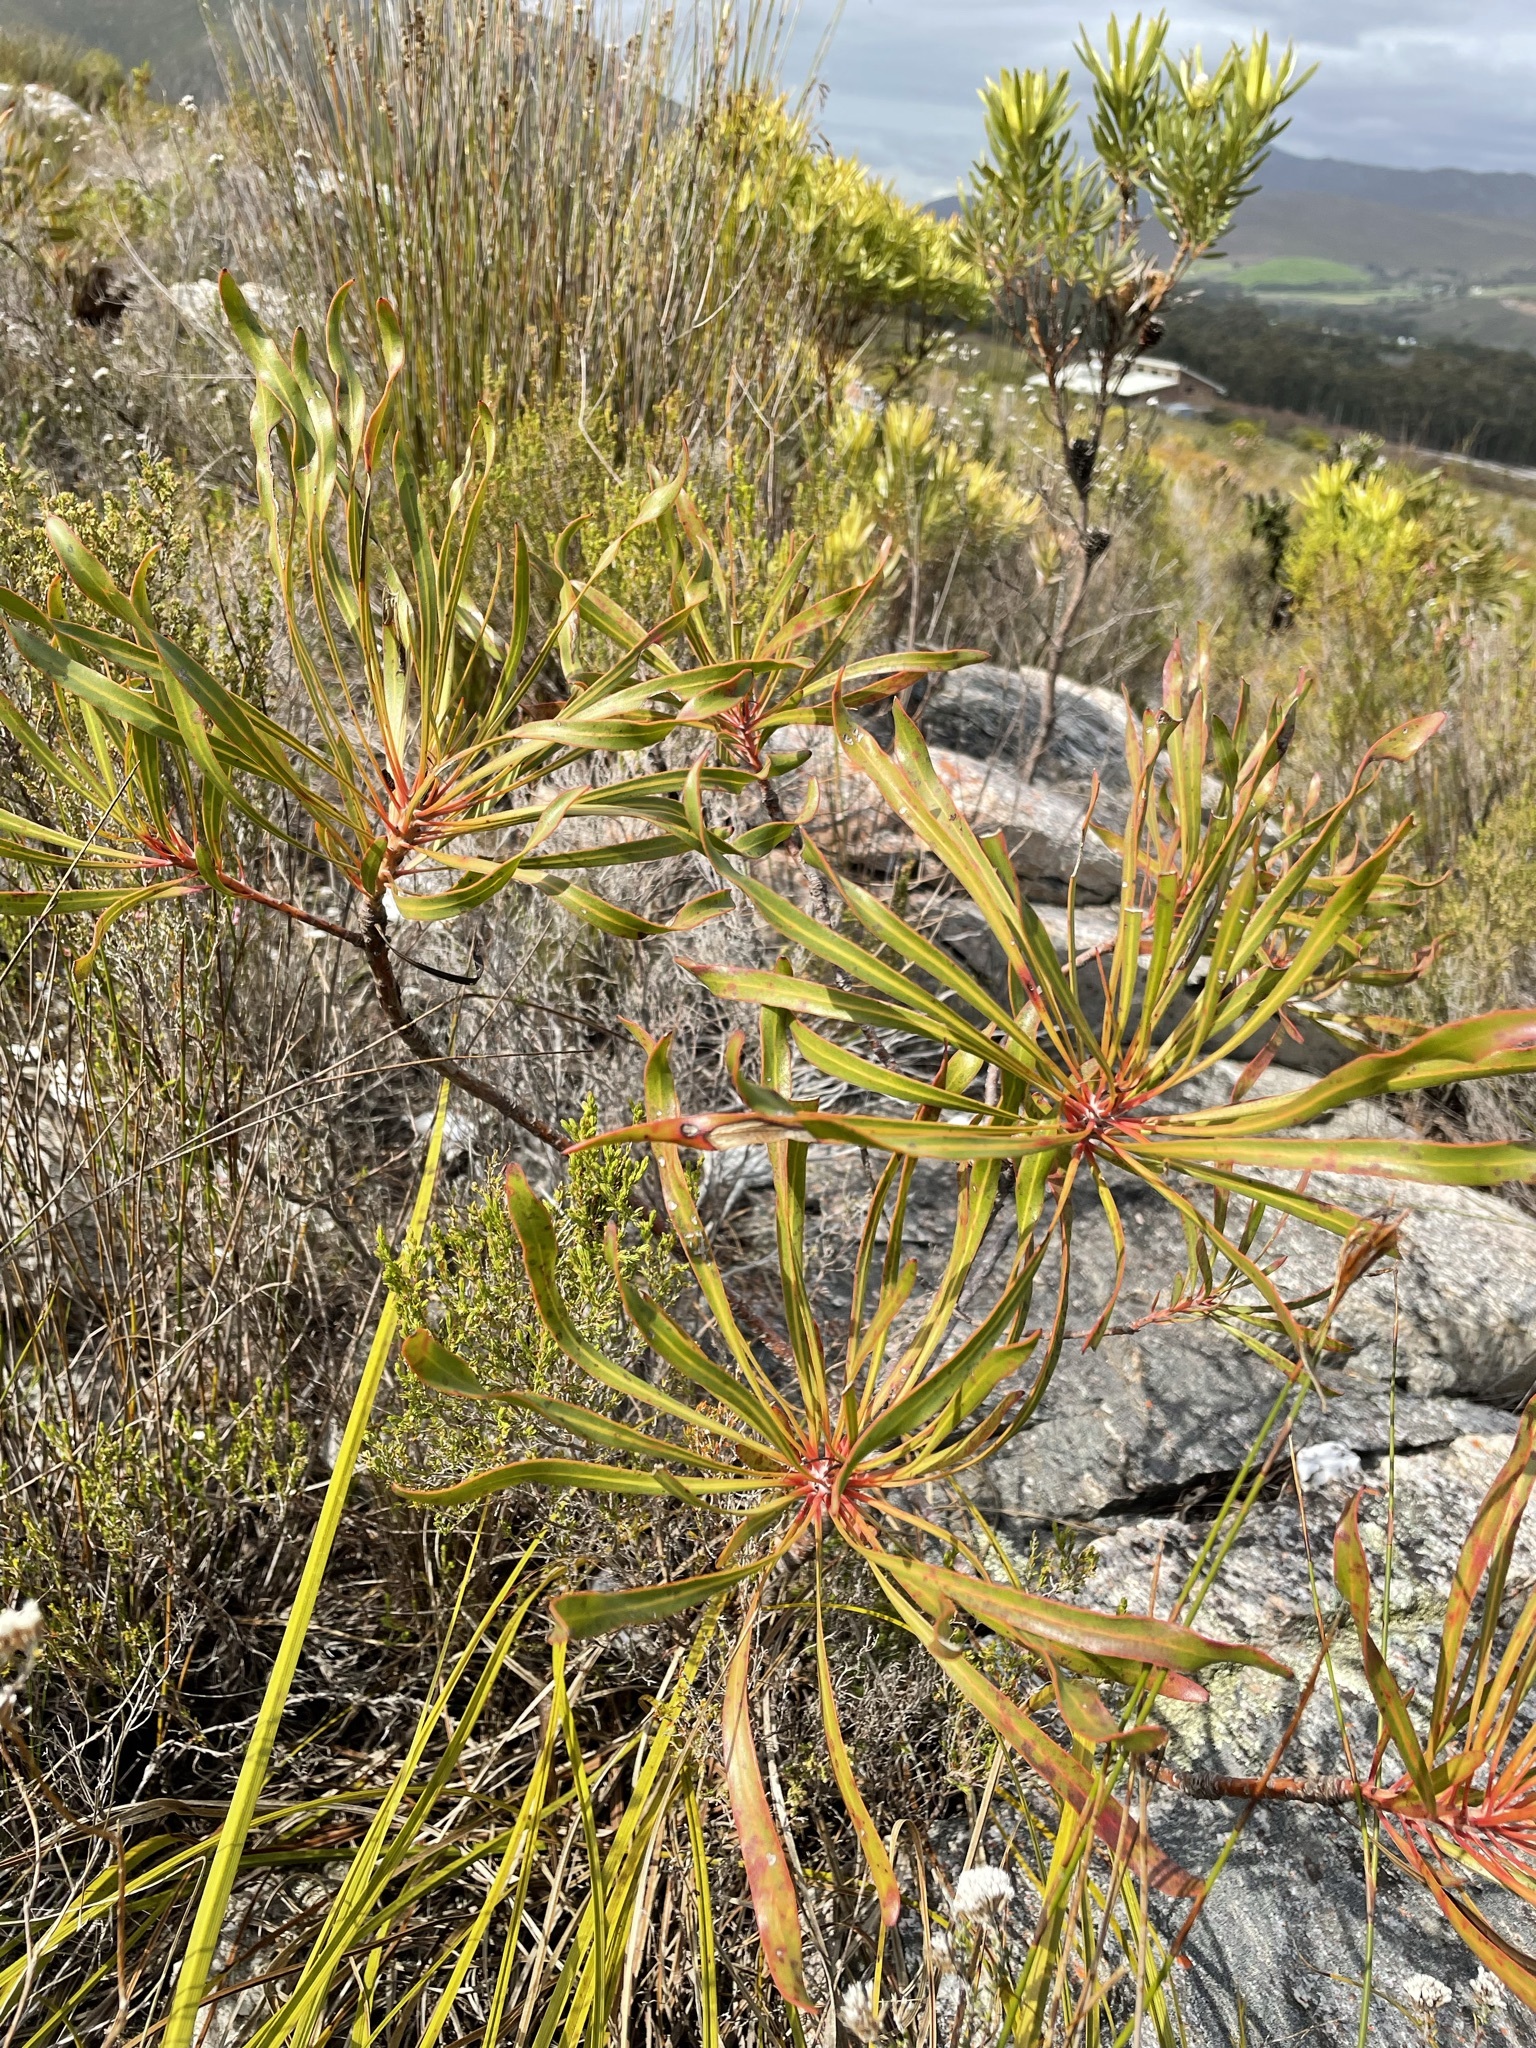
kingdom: Plantae
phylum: Tracheophyta
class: Magnoliopsida
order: Proteales
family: Proteaceae
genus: Protea
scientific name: Protea longifolia
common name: Long-leaf sugarbush
